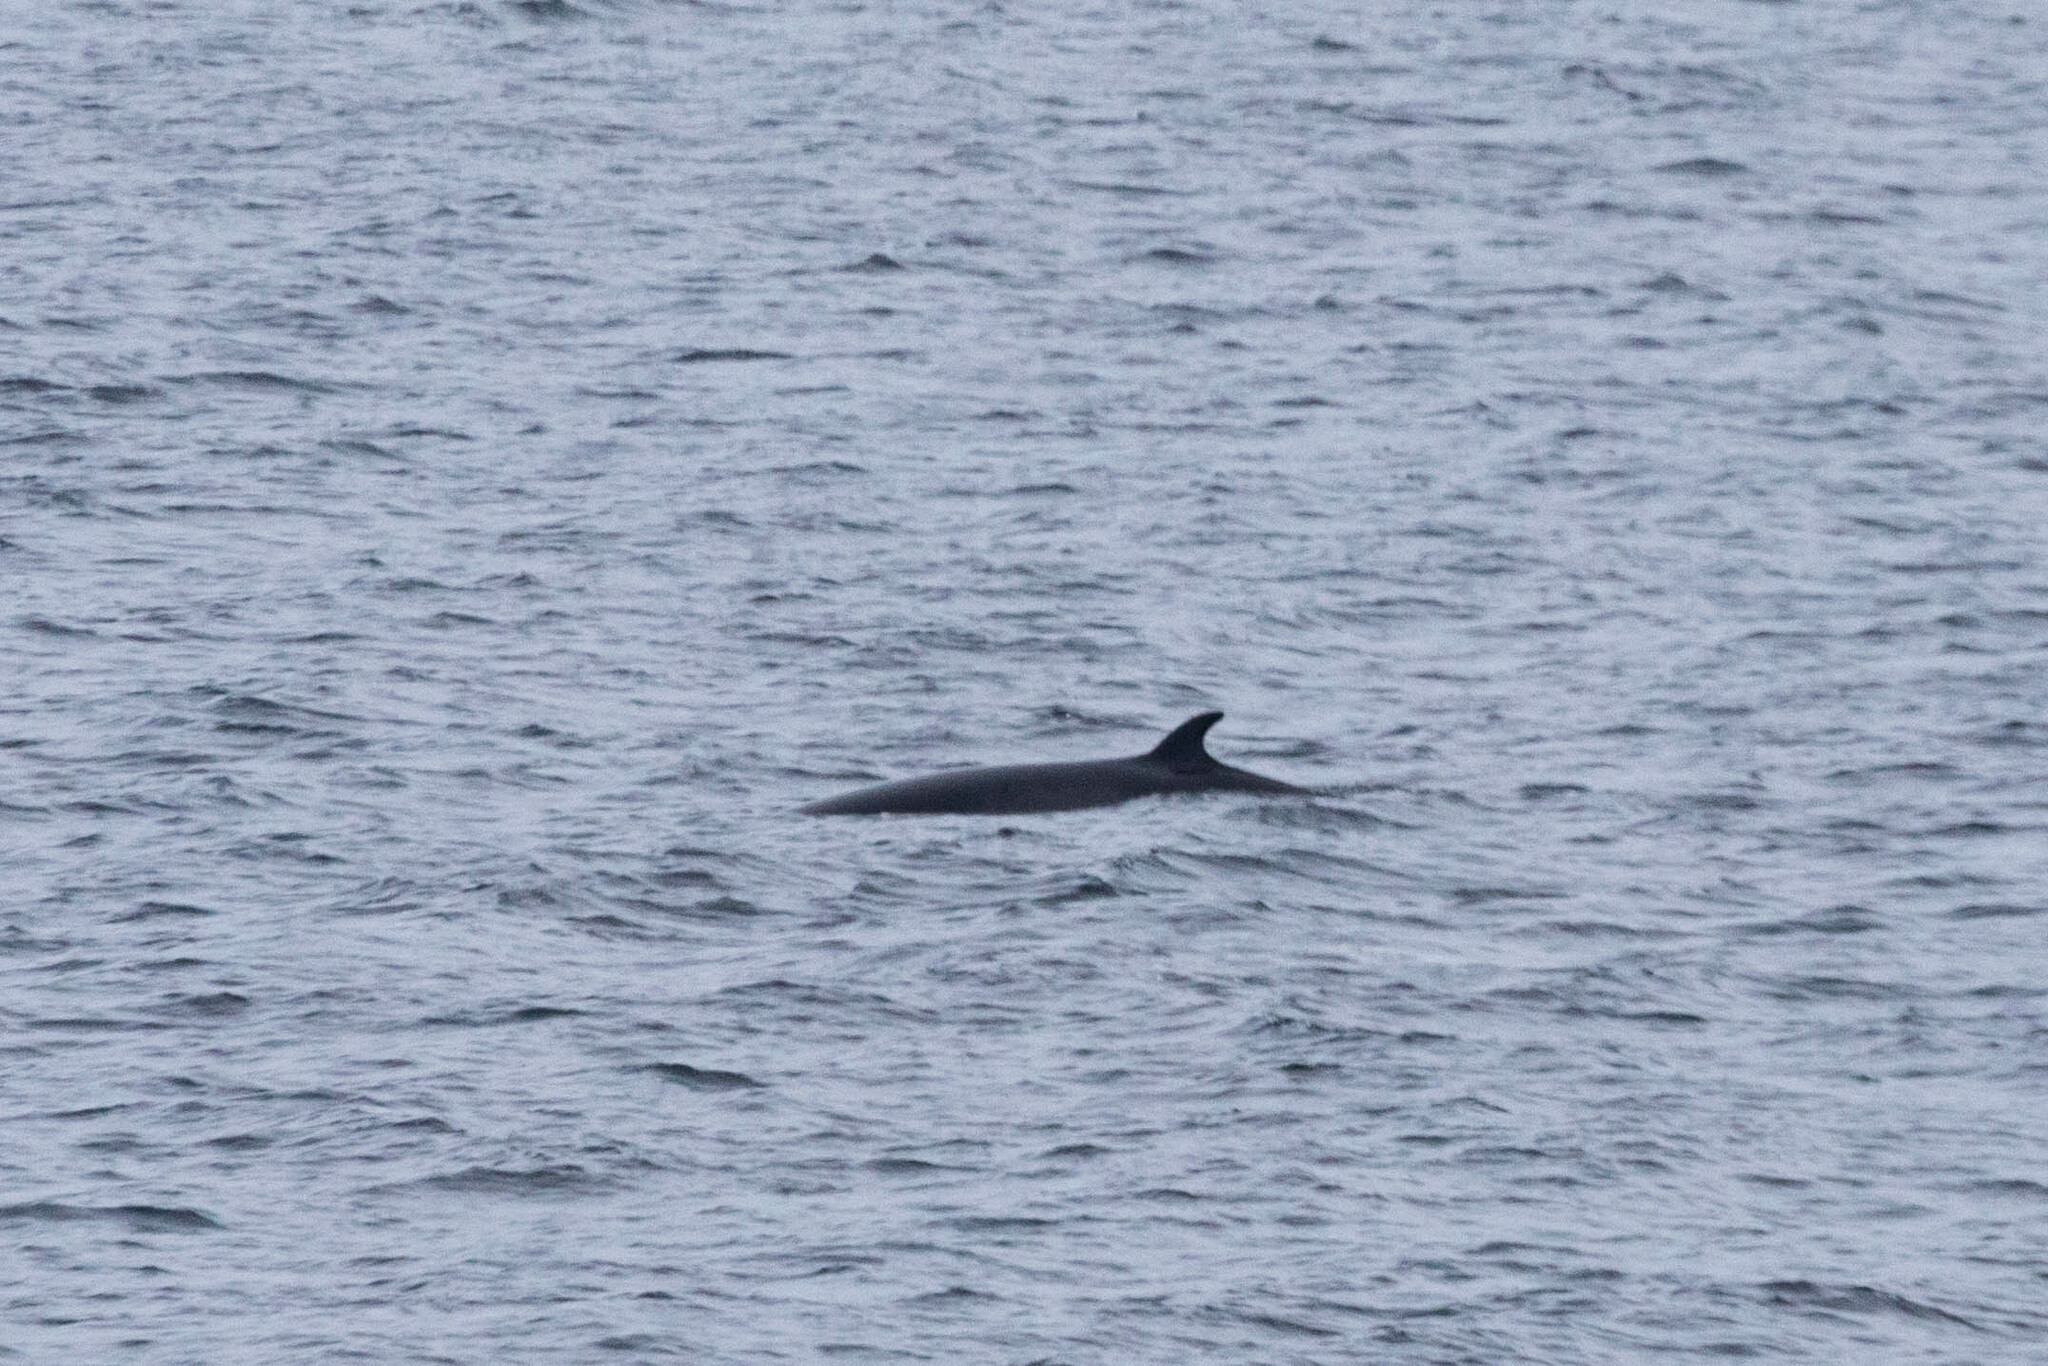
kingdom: Animalia
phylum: Chordata
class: Mammalia
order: Cetacea
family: Balaenopteridae
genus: Balaenoptera
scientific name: Balaenoptera acutorostrata
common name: Common minke whale
